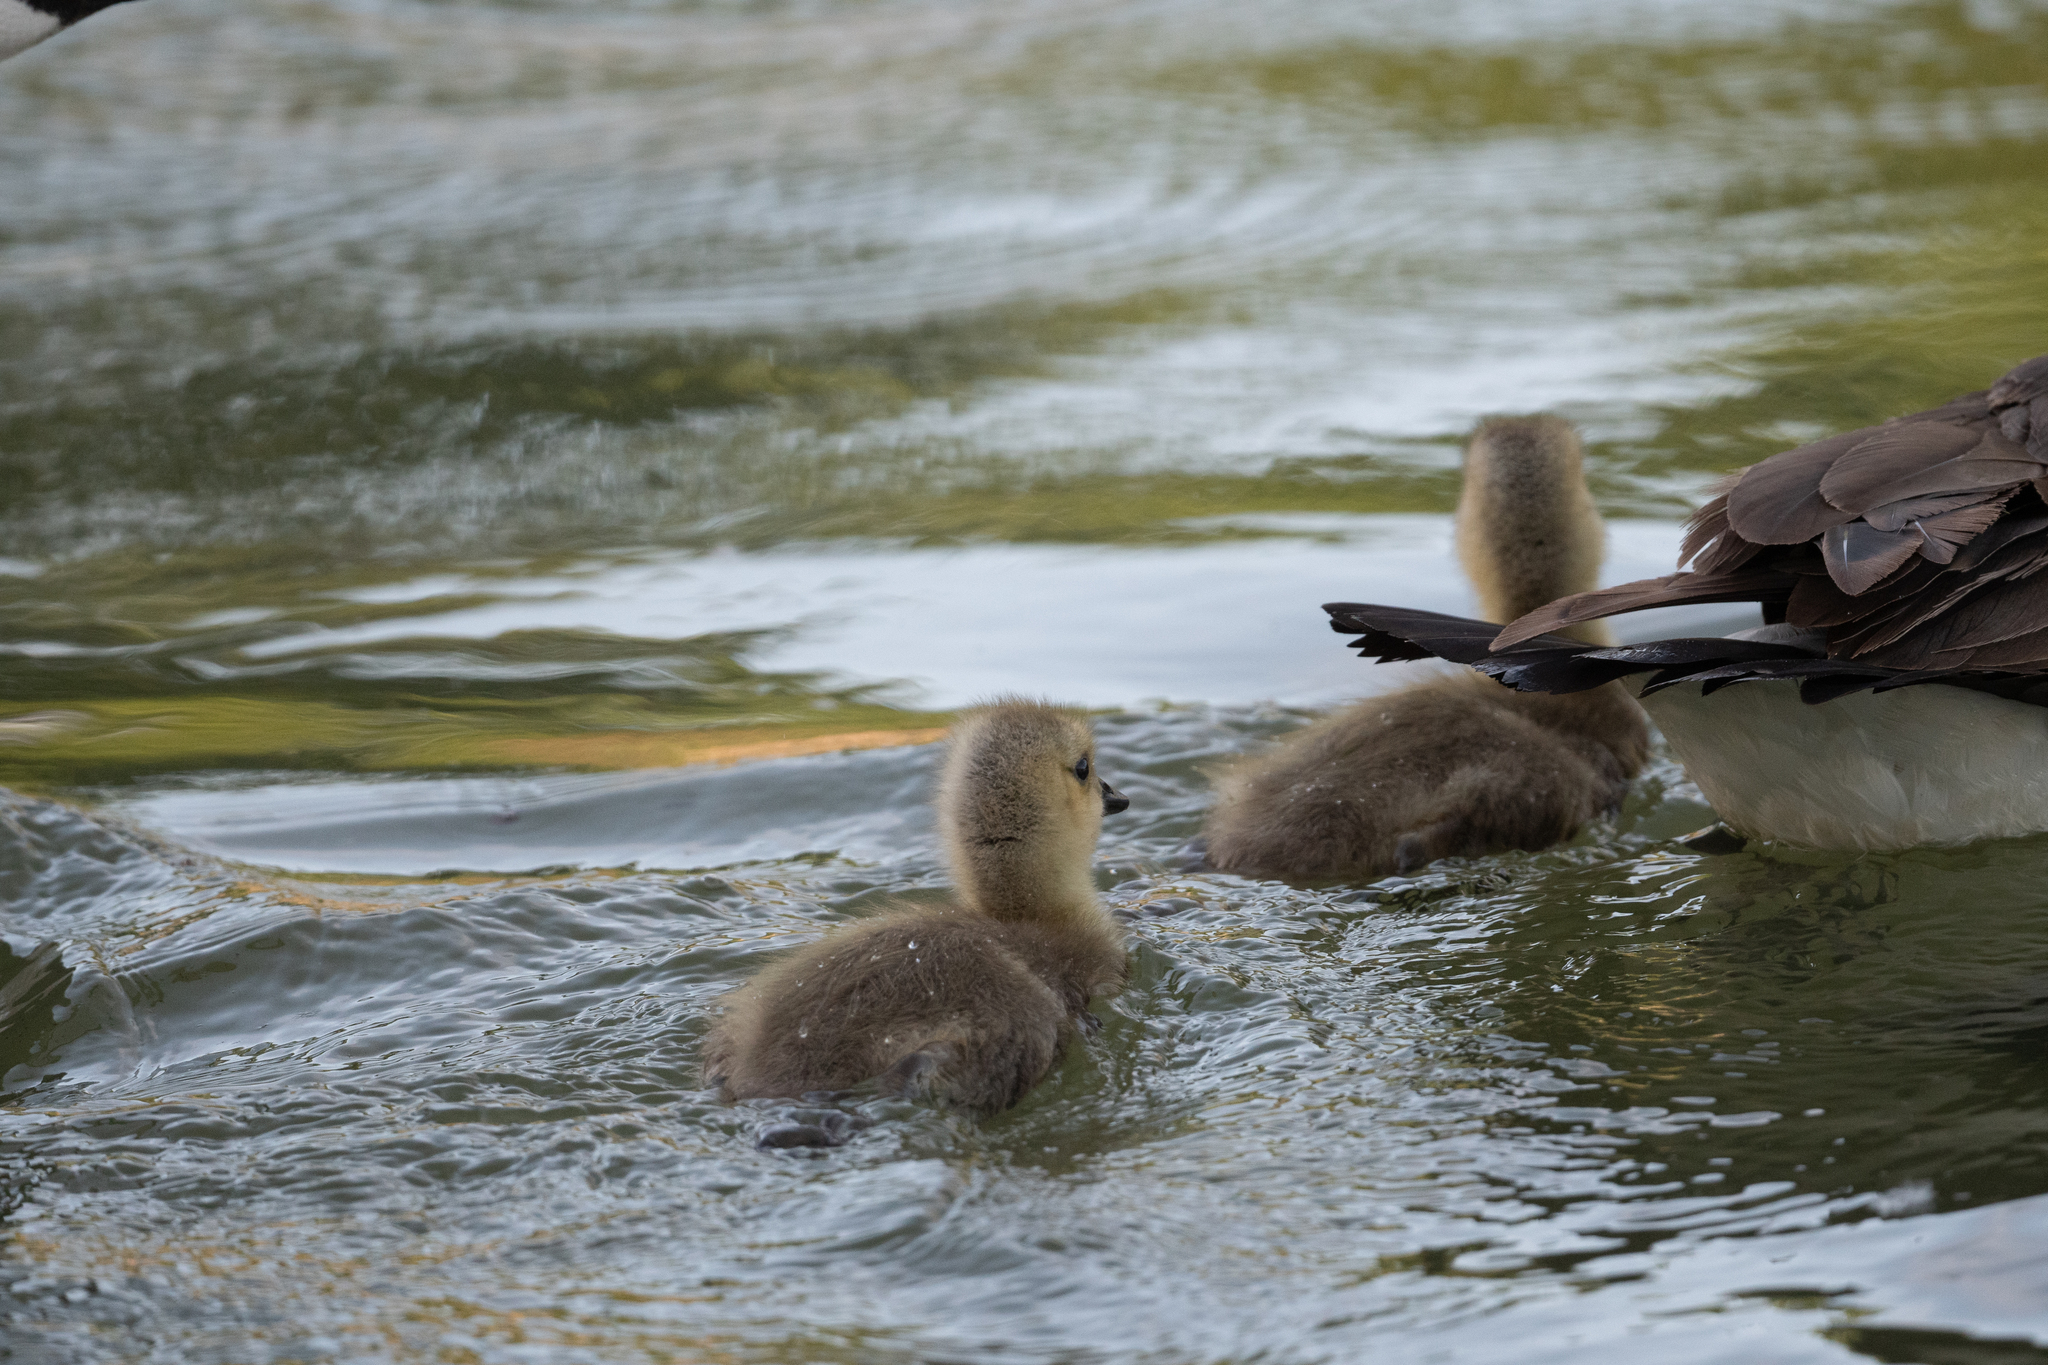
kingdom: Animalia
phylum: Chordata
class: Aves
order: Anseriformes
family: Anatidae
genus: Branta
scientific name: Branta canadensis
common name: Canada goose
